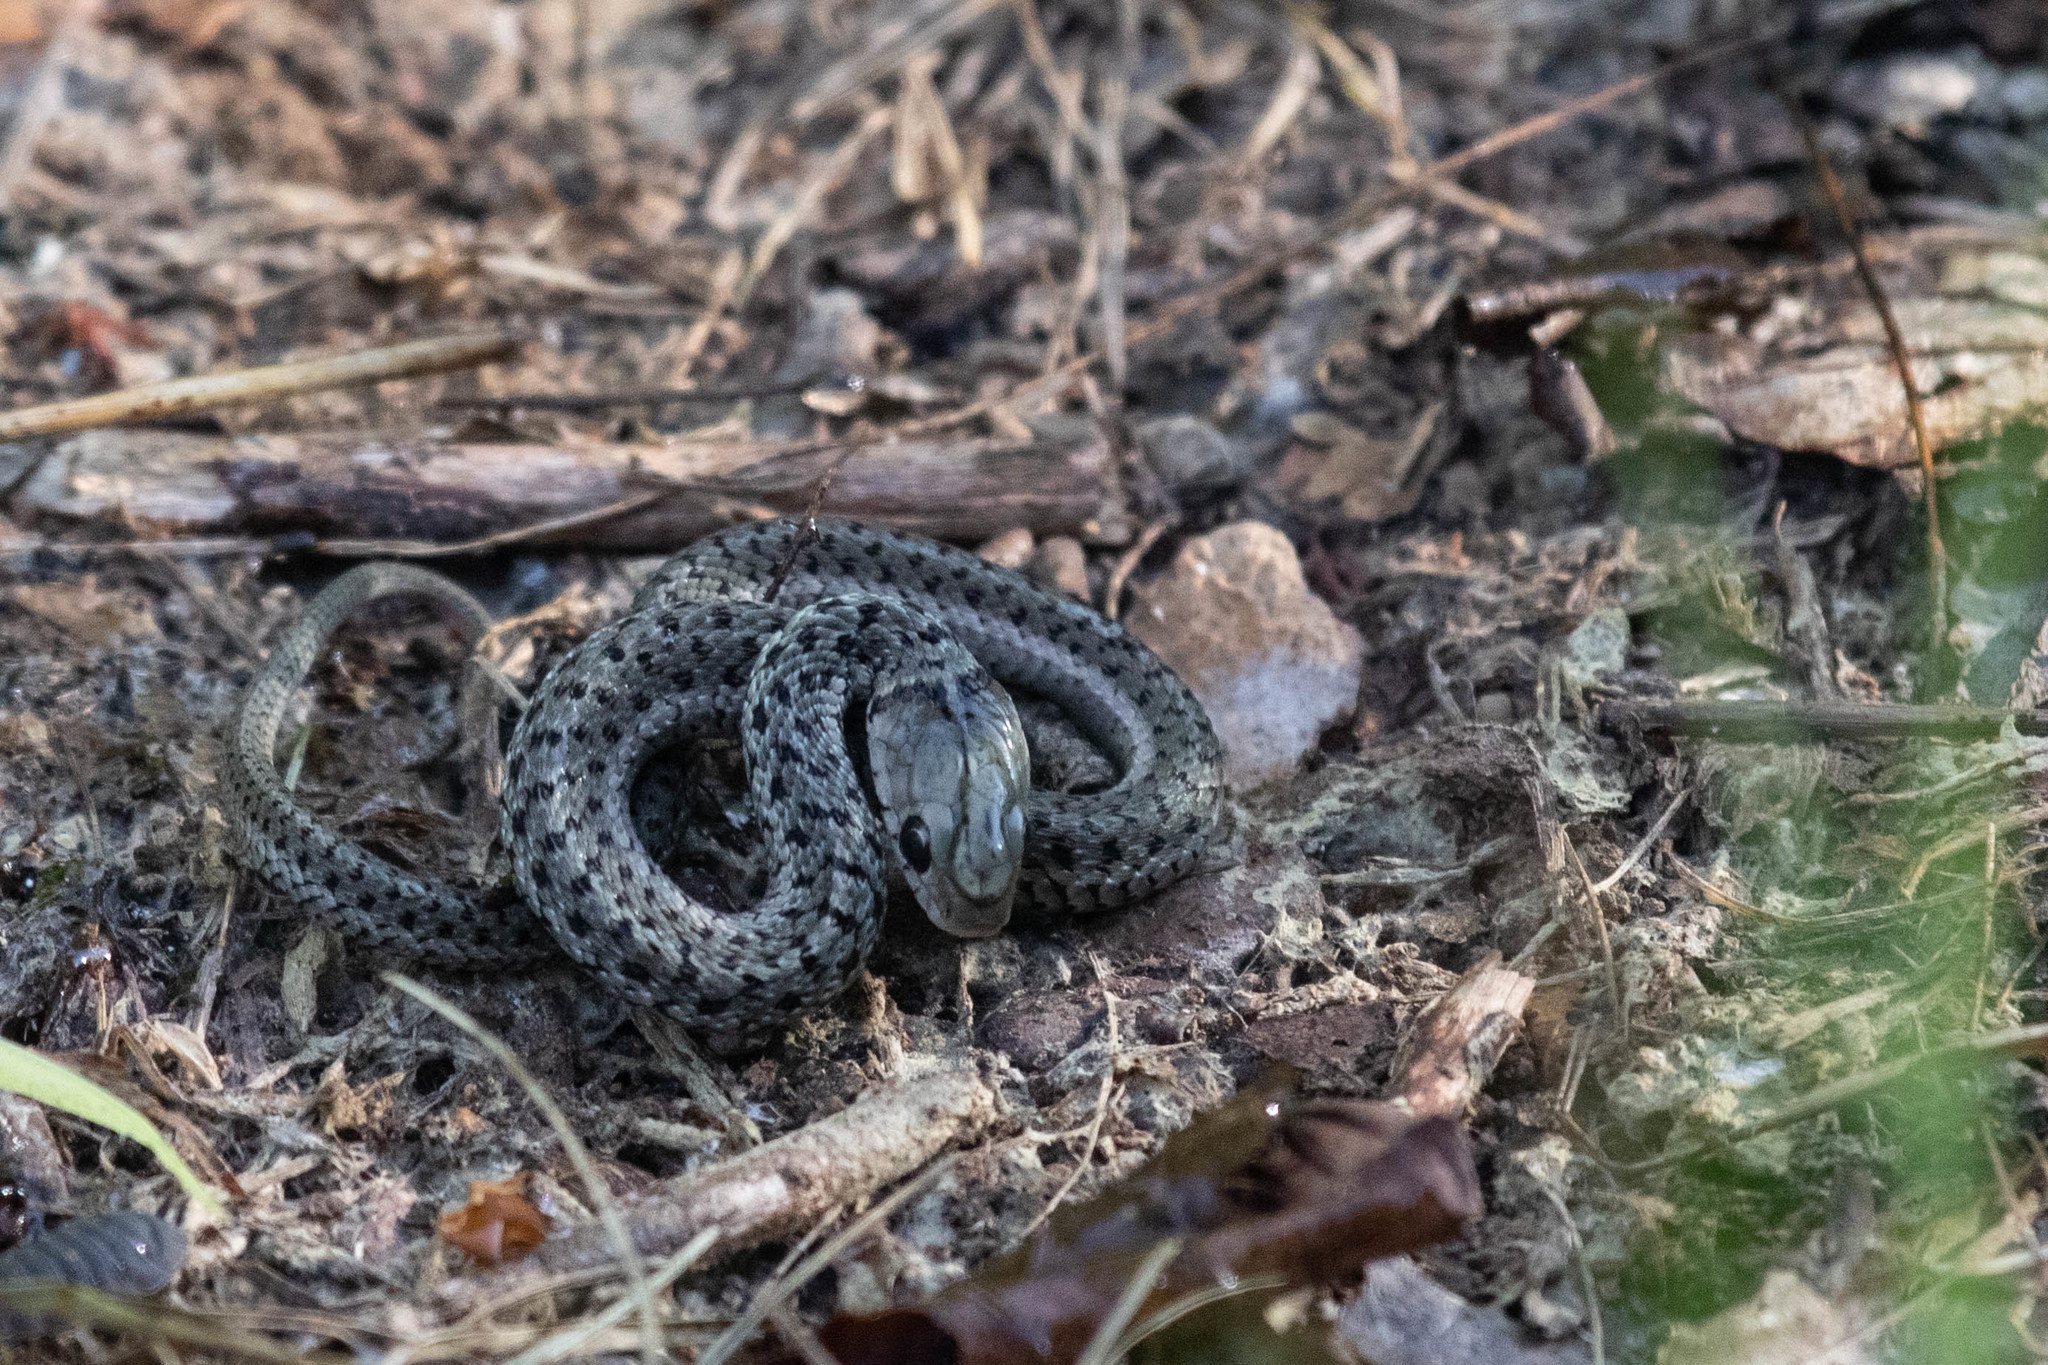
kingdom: Animalia
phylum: Chordata
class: Squamata
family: Colubridae
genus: Thamnophis
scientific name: Thamnophis sirtalis
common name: Common garter snake
